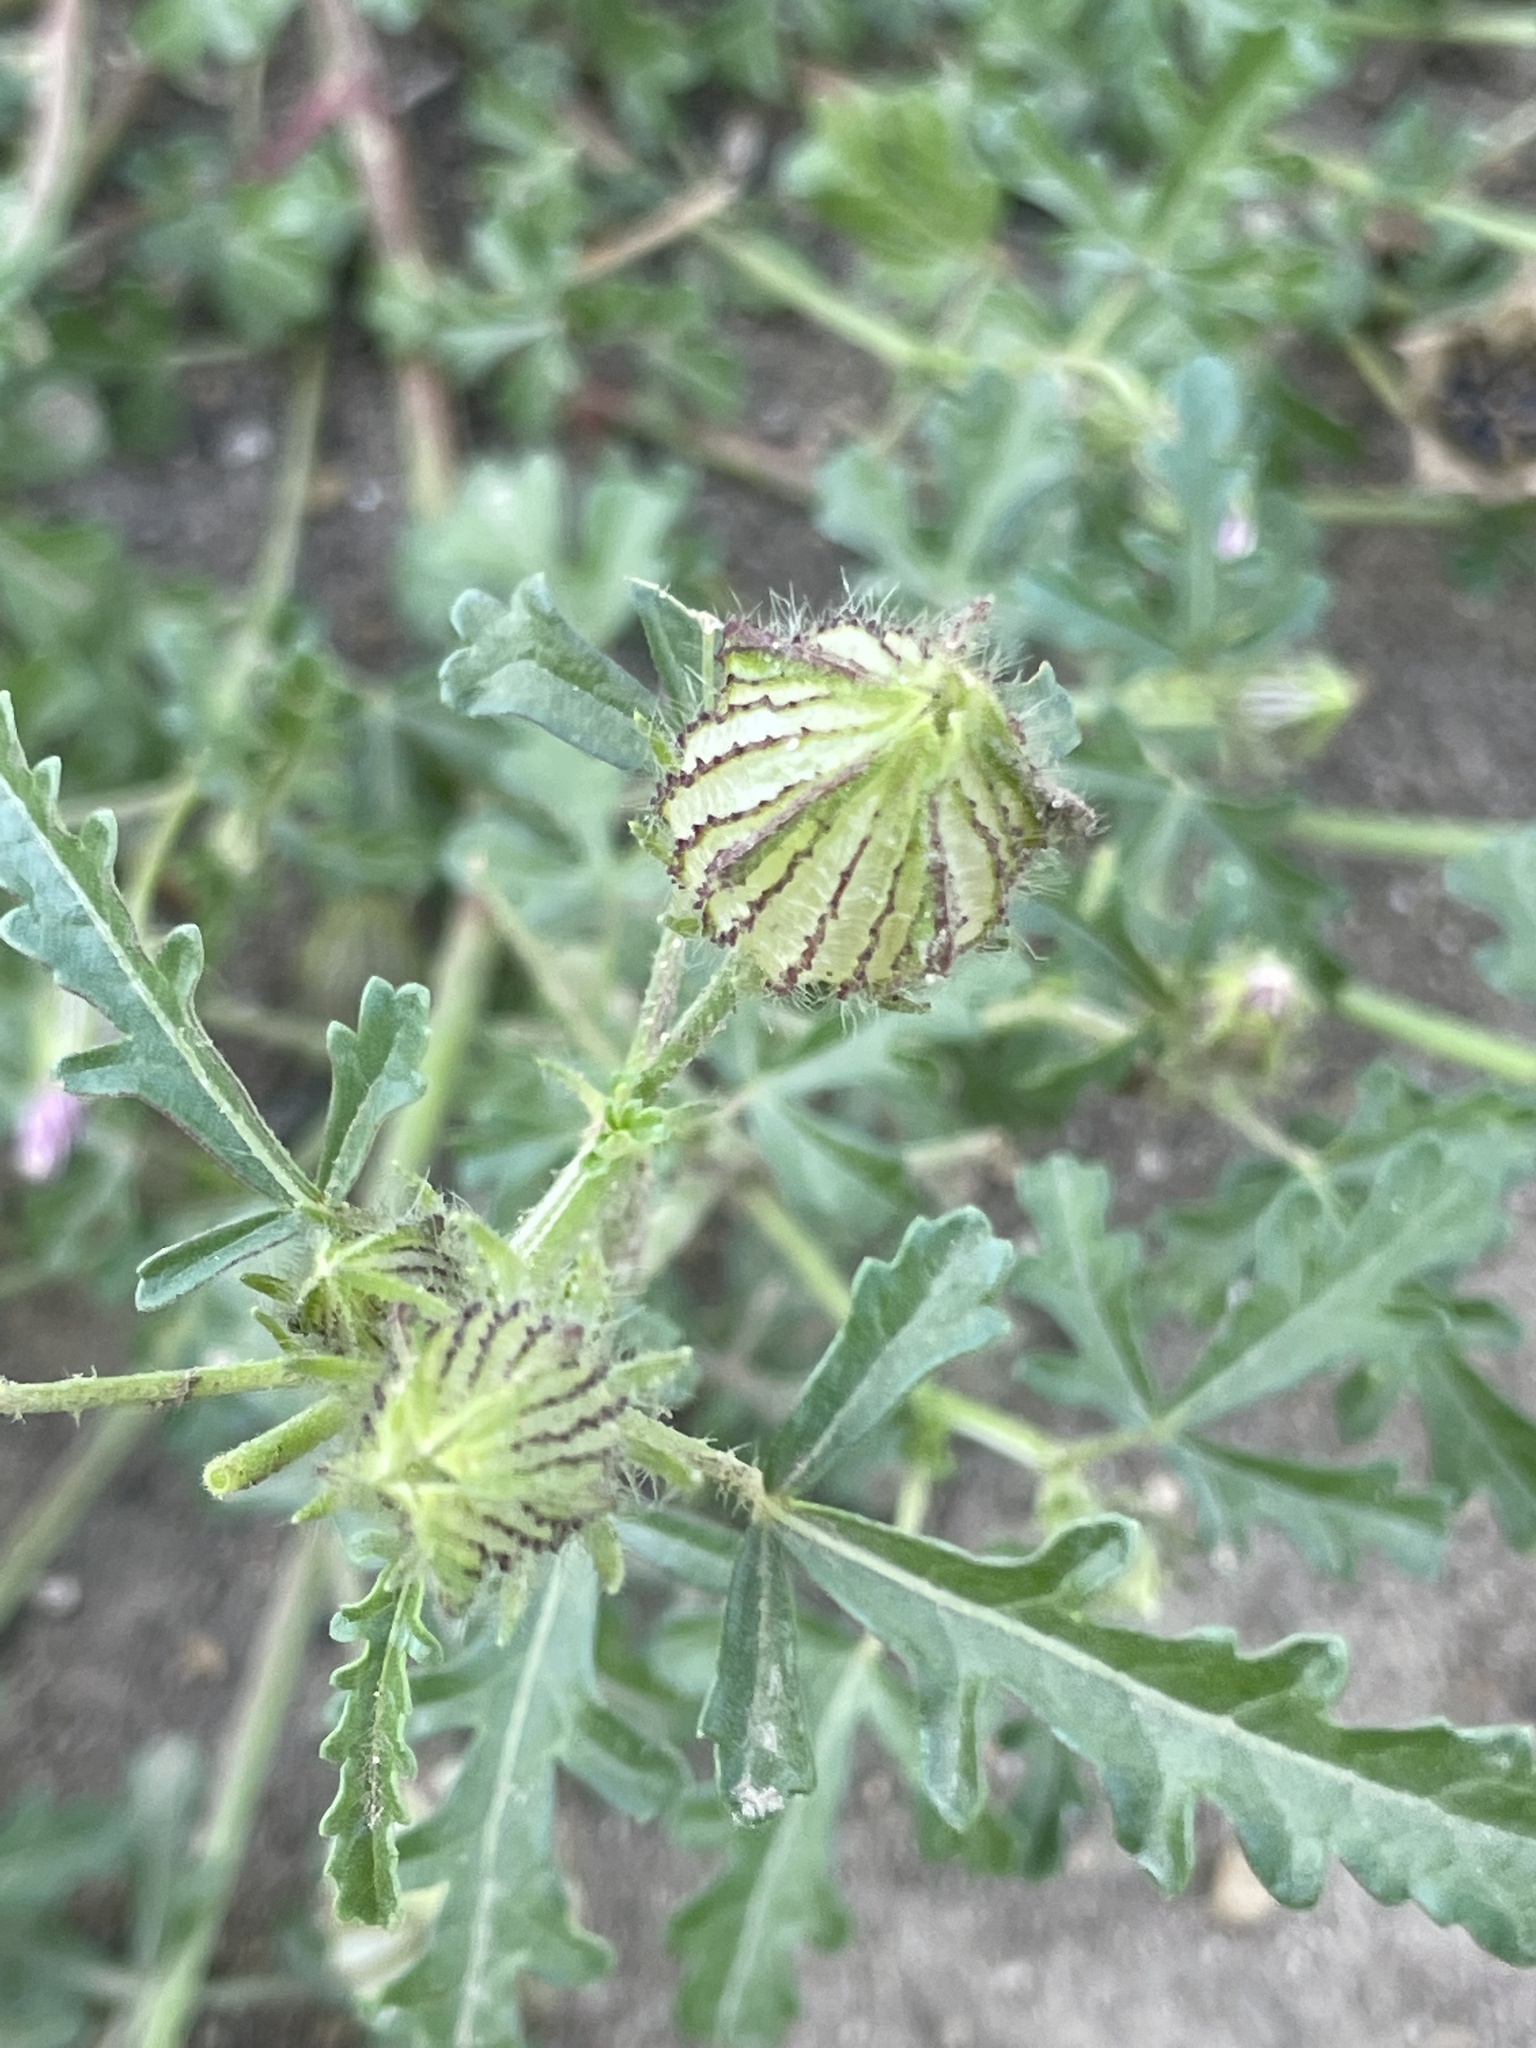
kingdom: Plantae
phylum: Tracheophyta
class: Magnoliopsida
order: Malvales
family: Malvaceae
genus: Hibiscus
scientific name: Hibiscus trionum
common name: Bladder ketmia
